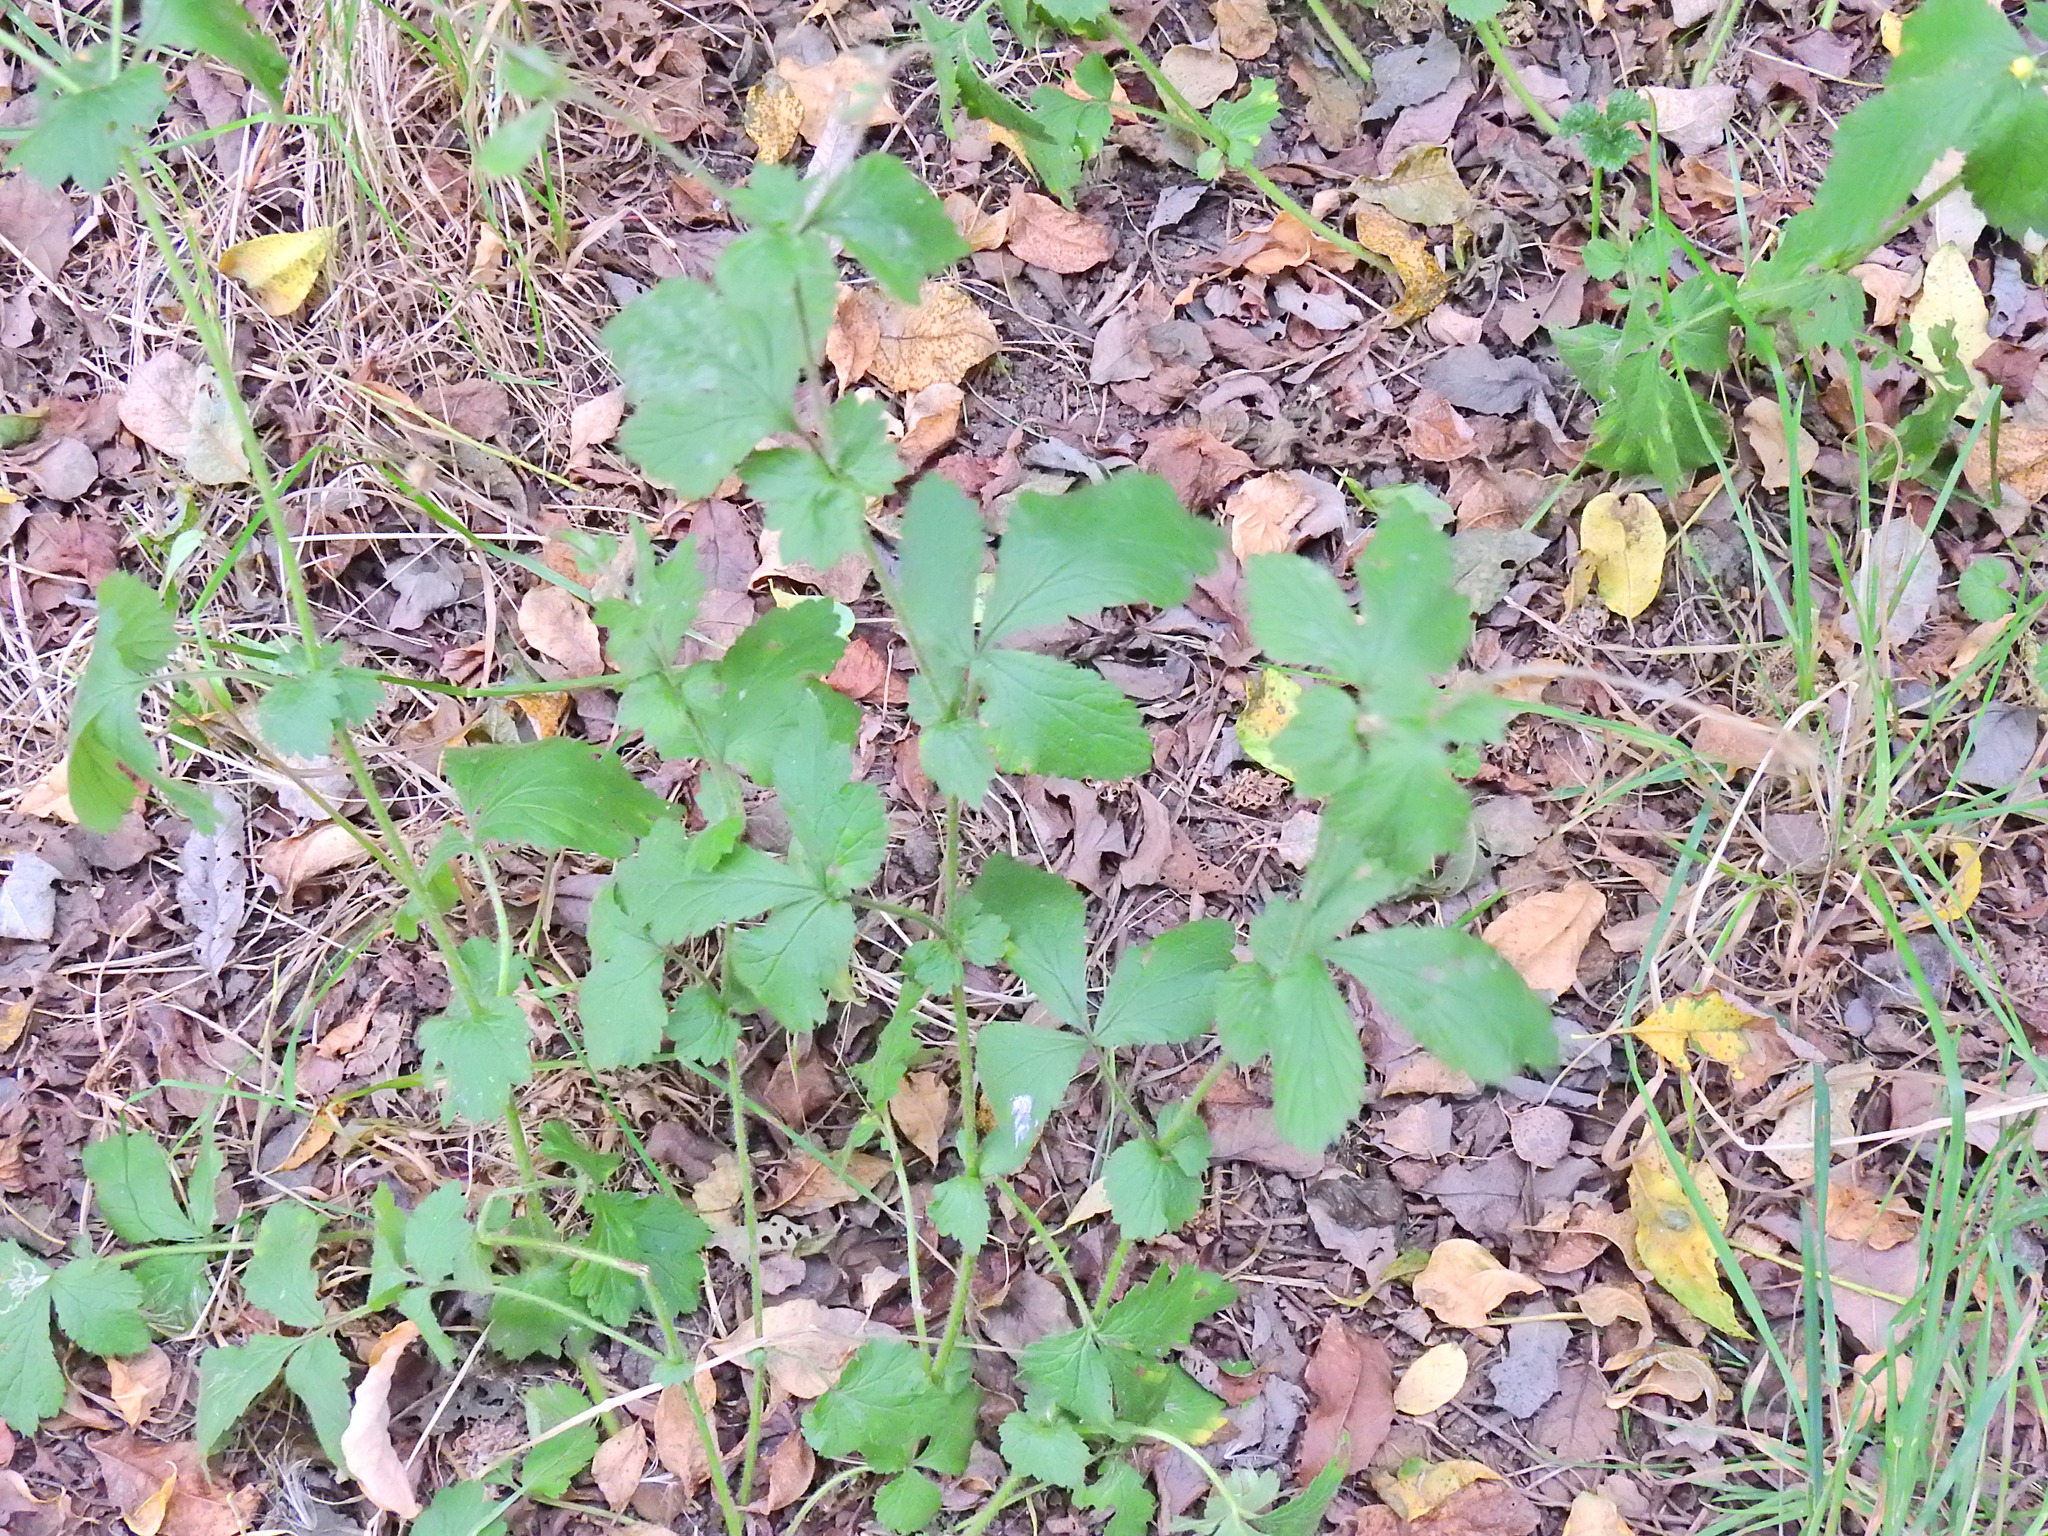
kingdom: Plantae
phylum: Tracheophyta
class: Magnoliopsida
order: Rosales
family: Rosaceae
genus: Geum
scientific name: Geum urbanum
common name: Wood avens
